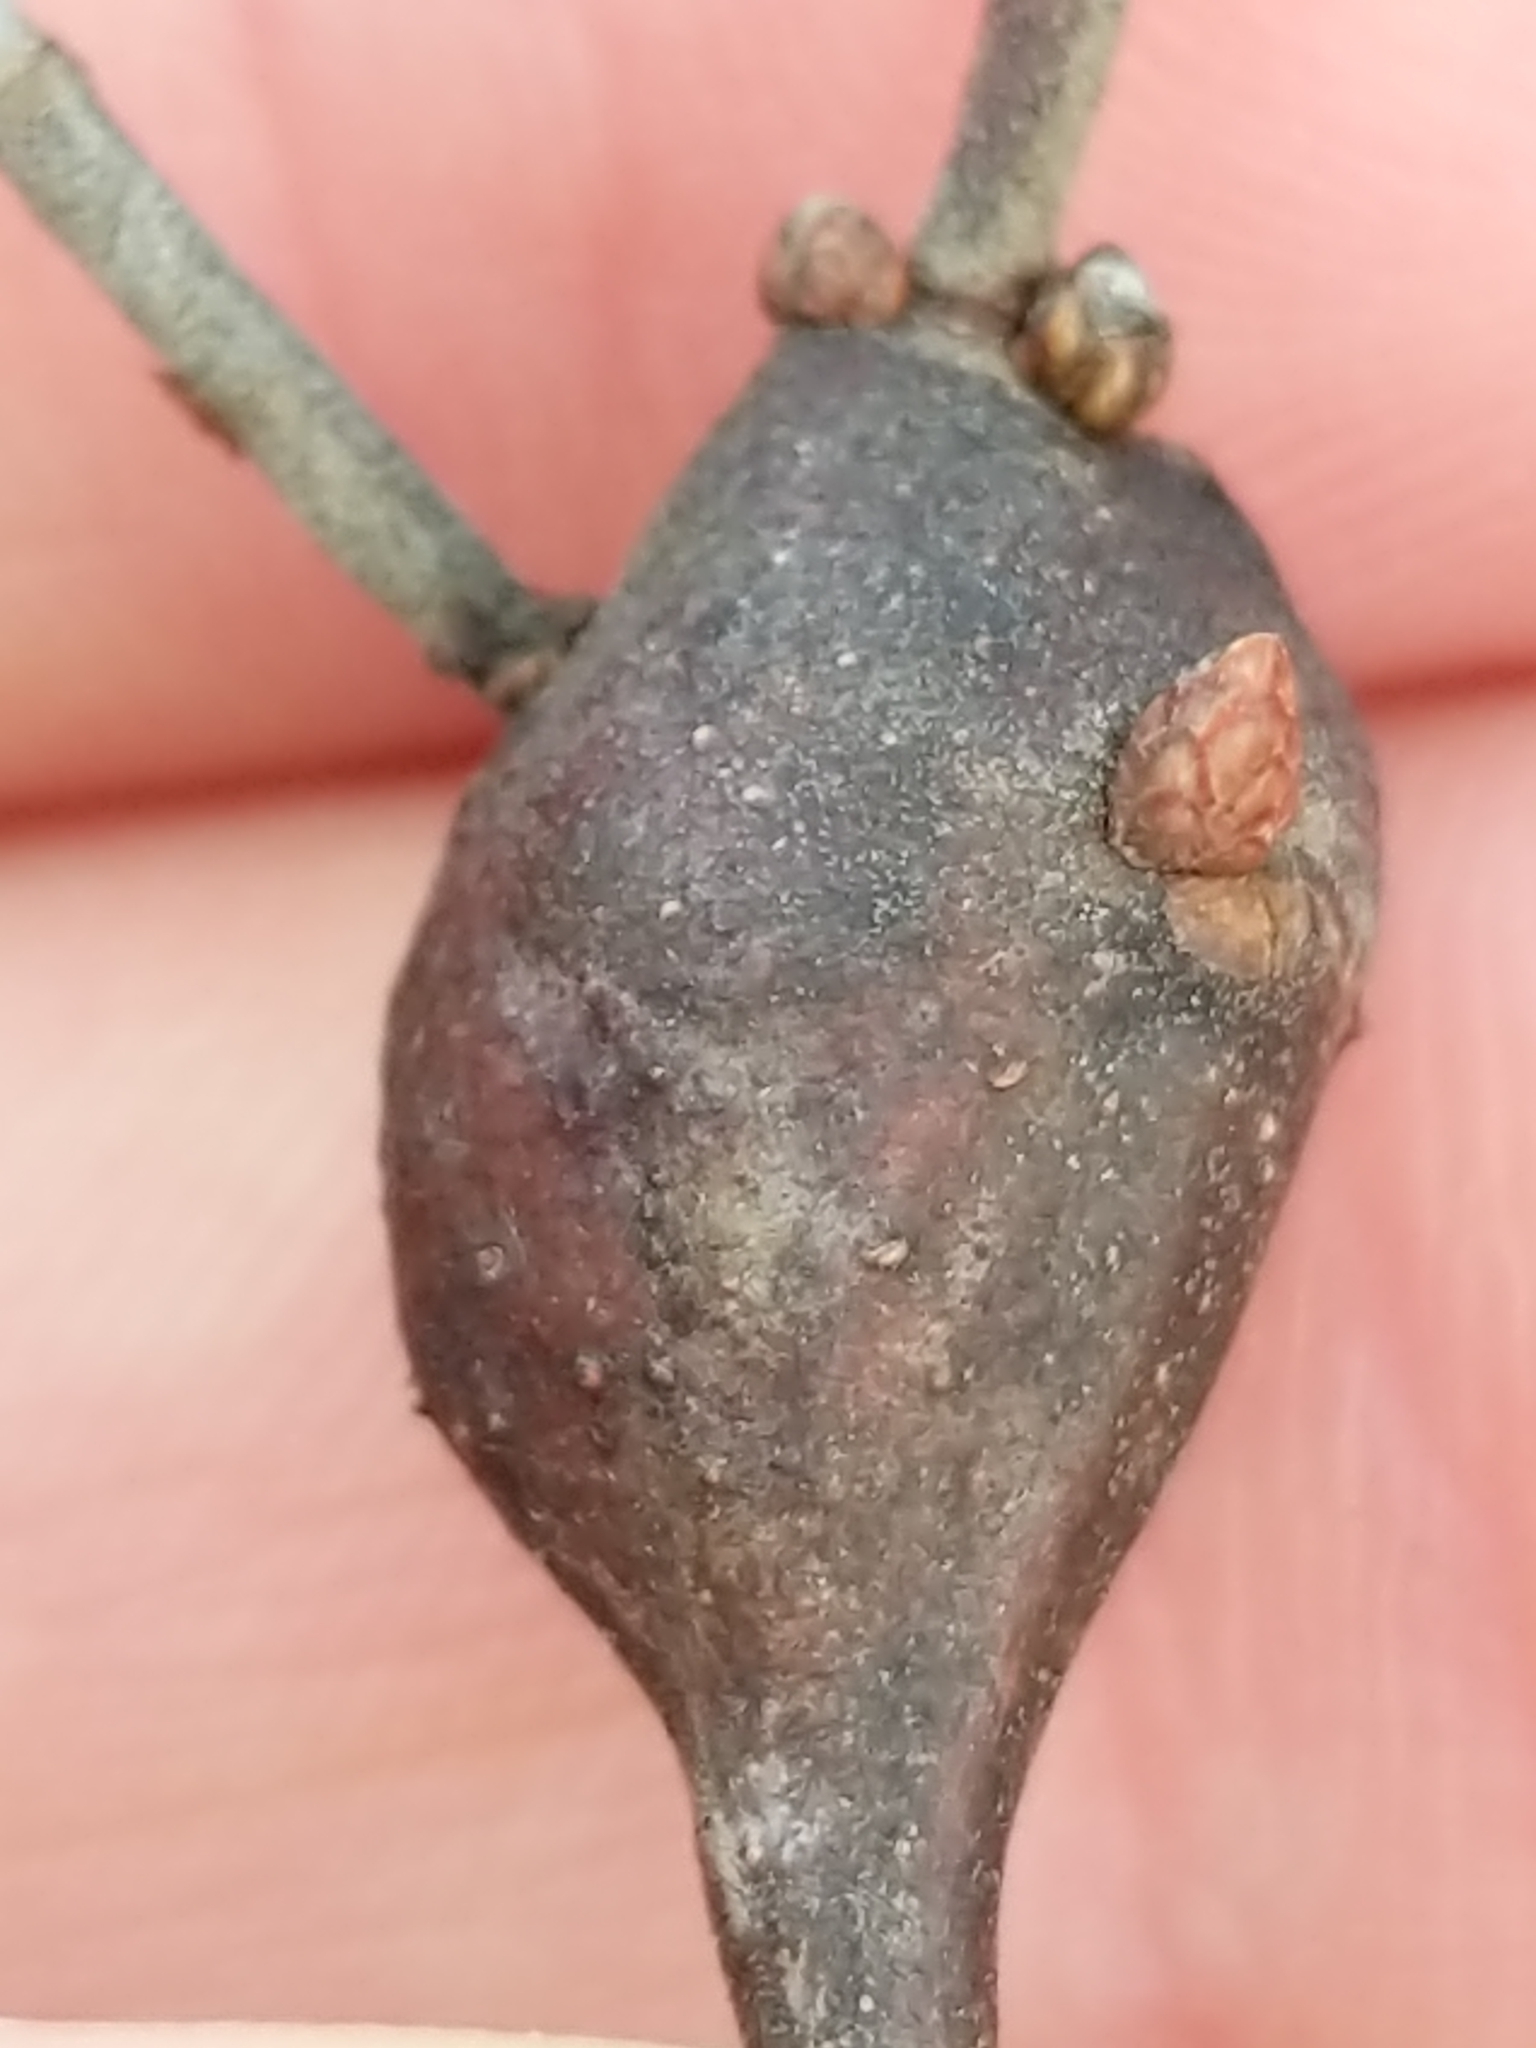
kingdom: Animalia
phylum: Arthropoda
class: Insecta
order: Hymenoptera
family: Cynipidae
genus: Zapatella
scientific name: Zapatella quercusphellos
